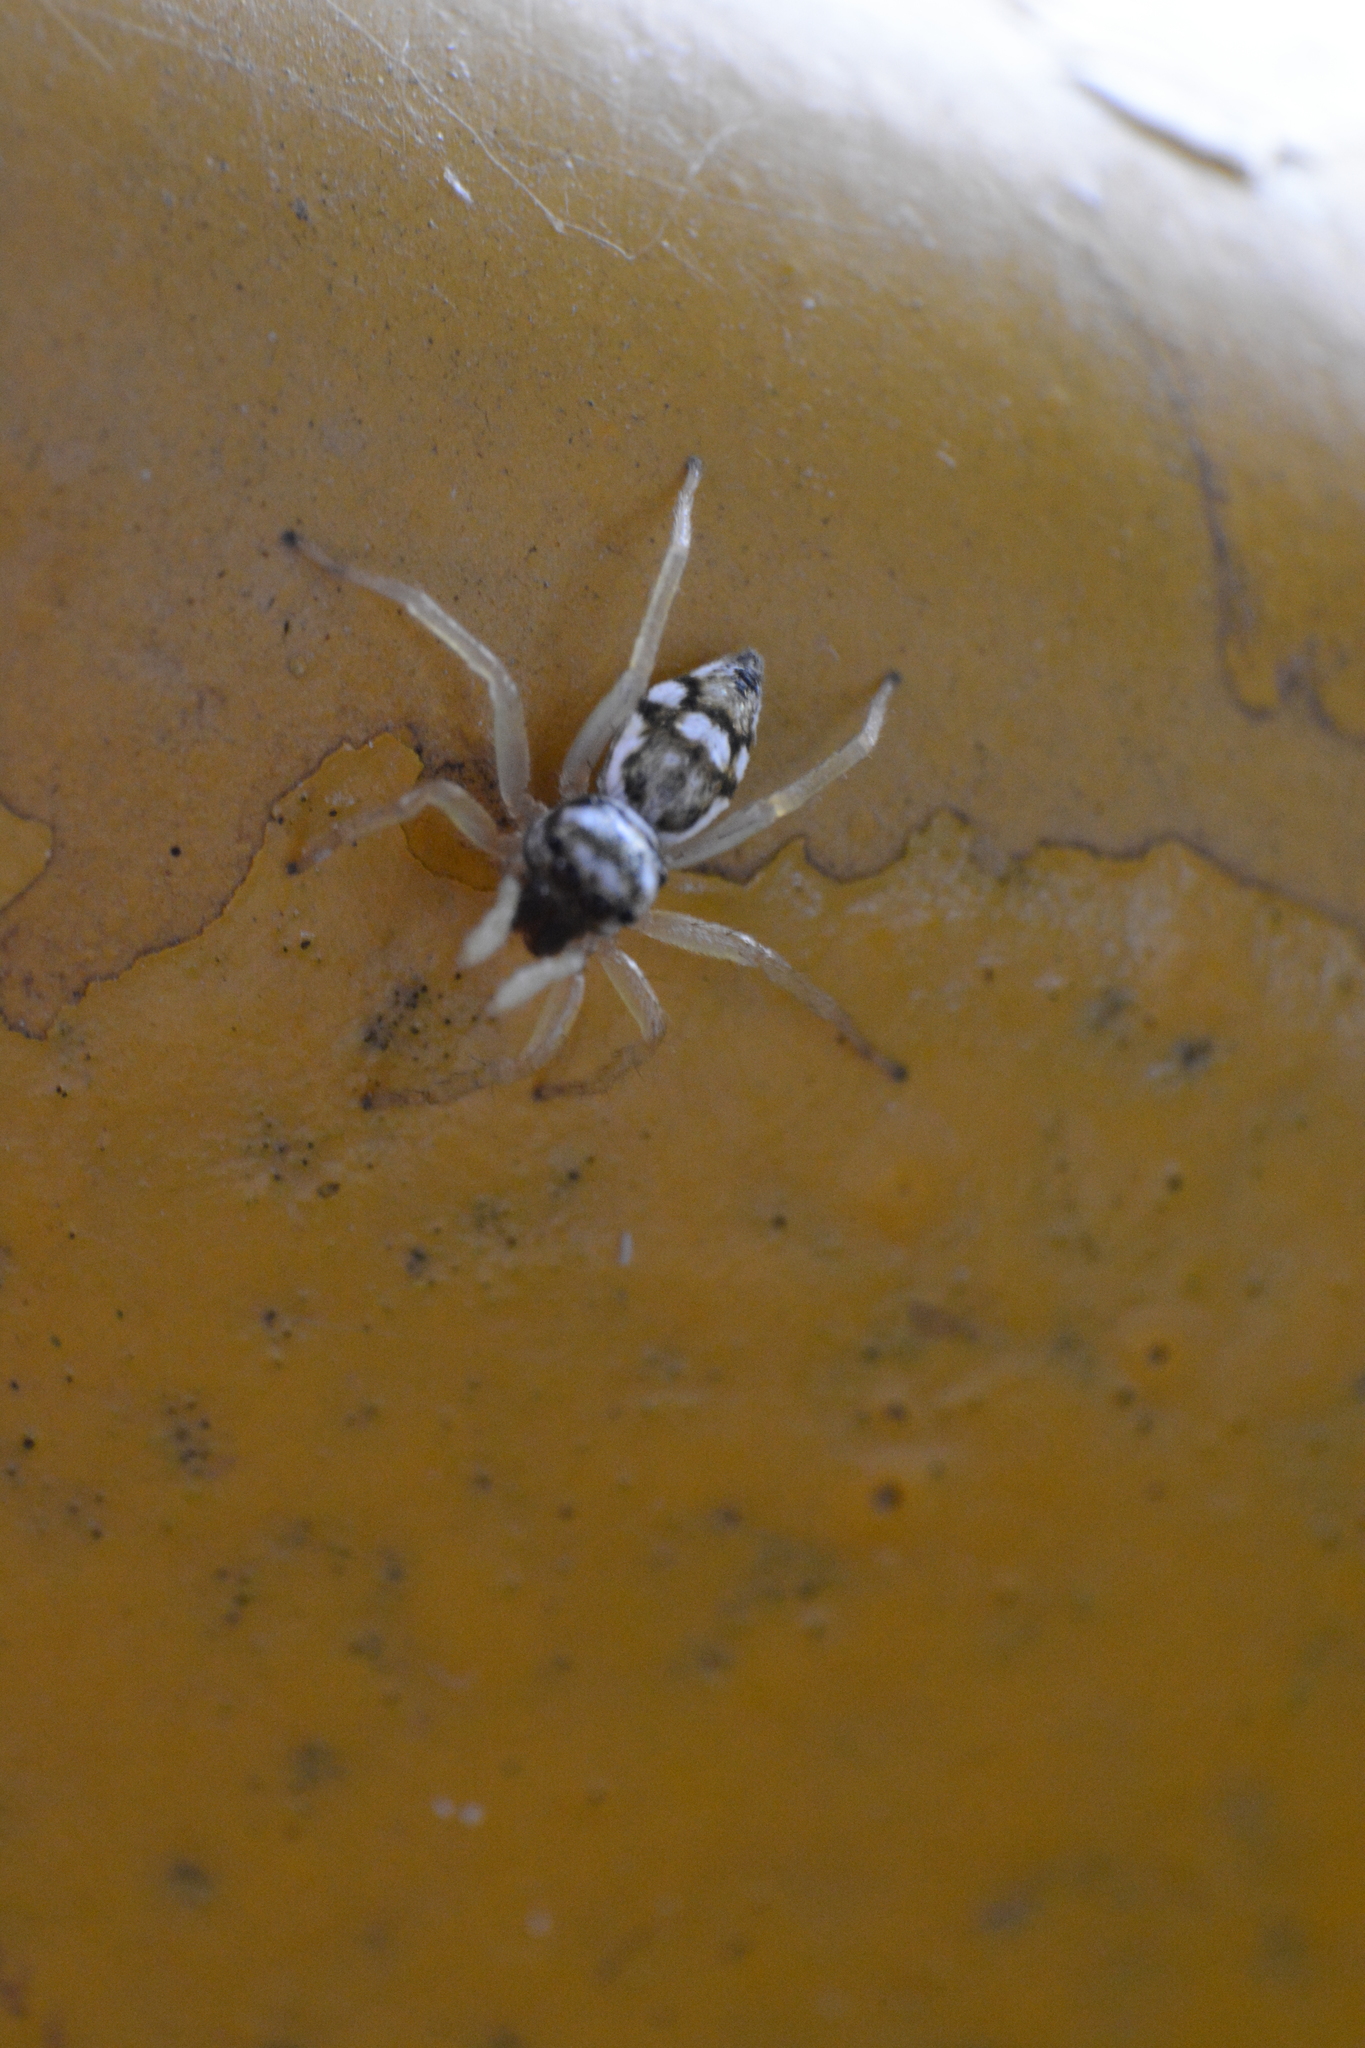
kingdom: Animalia
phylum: Arthropoda
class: Arachnida
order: Araneae
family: Salticidae
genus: Phintella
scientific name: Phintella aequipes
